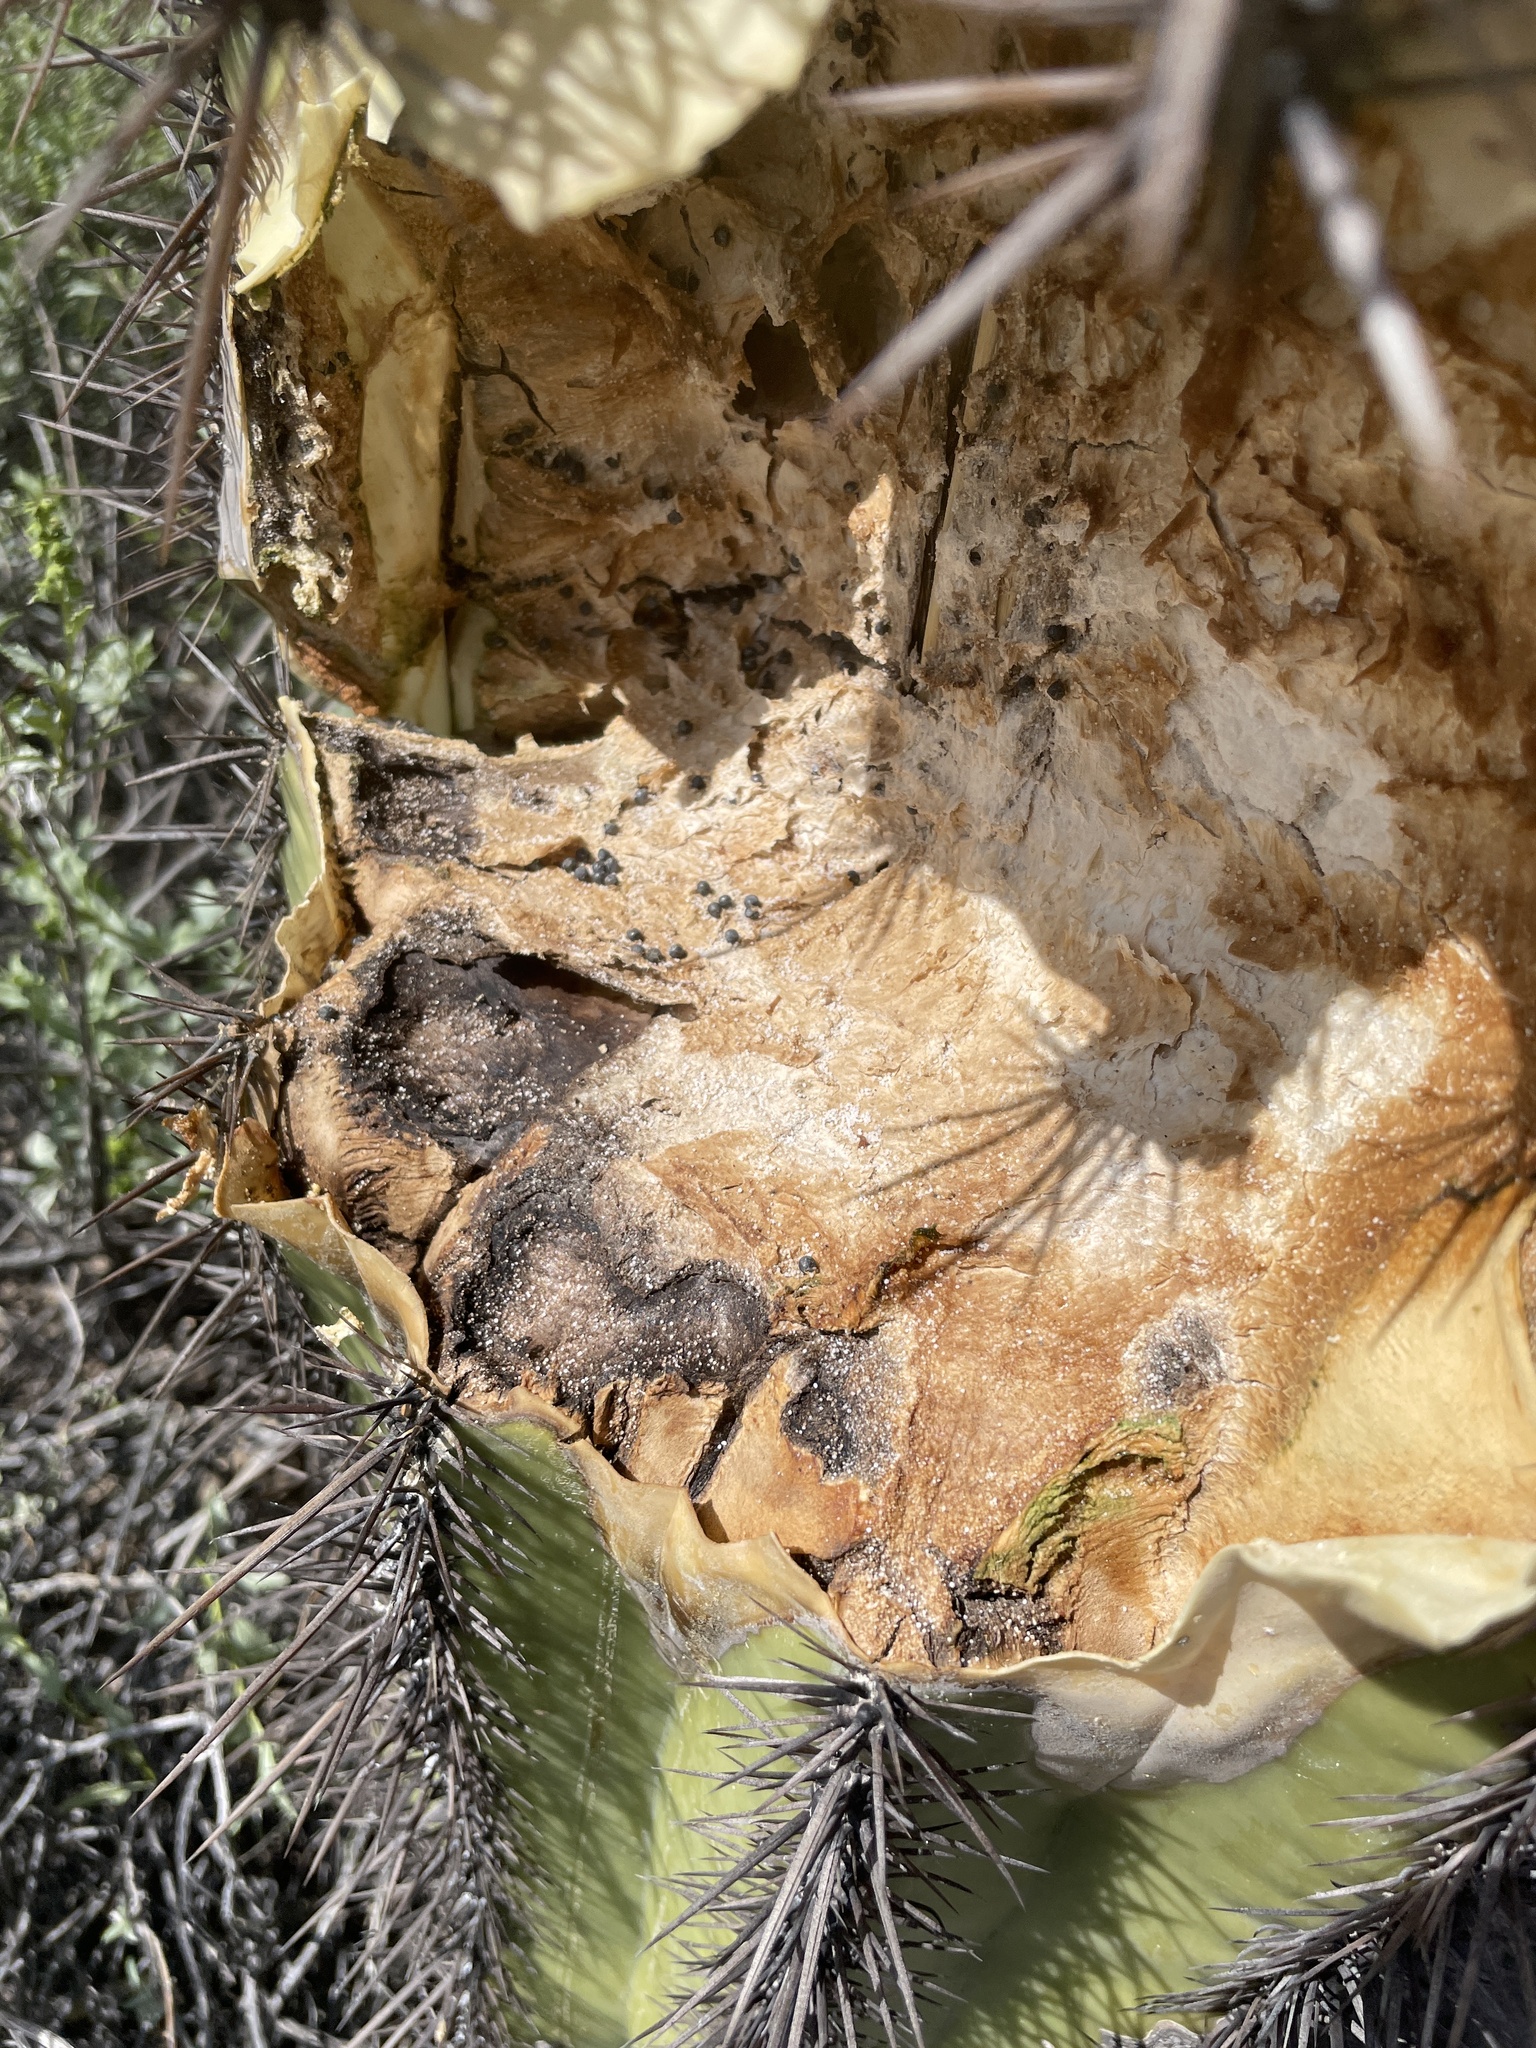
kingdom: Plantae
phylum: Tracheophyta
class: Magnoliopsida
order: Caryophyllales
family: Cactaceae
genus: Carnegiea
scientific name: Carnegiea gigantea
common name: Saguaro
